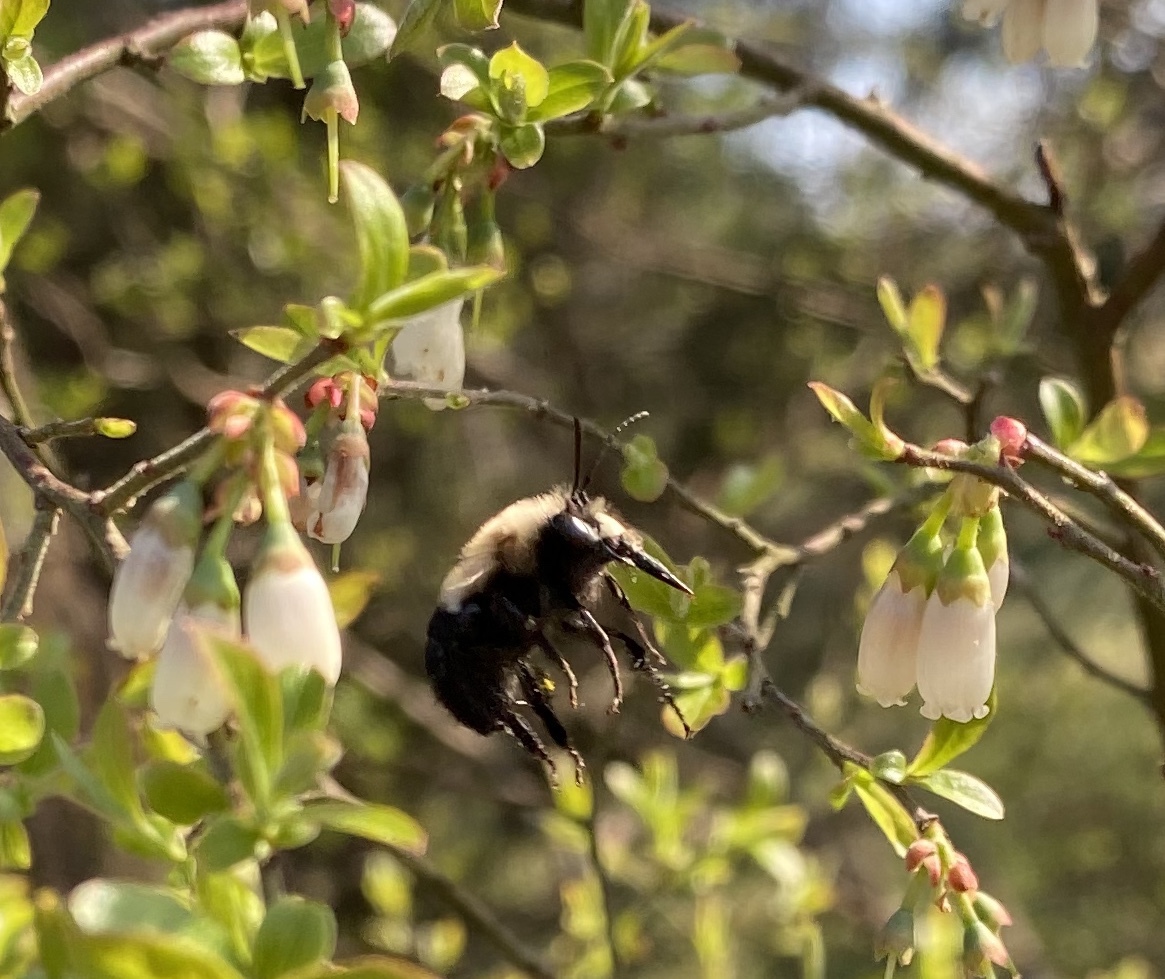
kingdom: Animalia
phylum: Arthropoda
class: Insecta
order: Hymenoptera
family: Apidae
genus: Habropoda
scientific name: Habropoda laboriosa
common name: Southeastern blueberry bee
